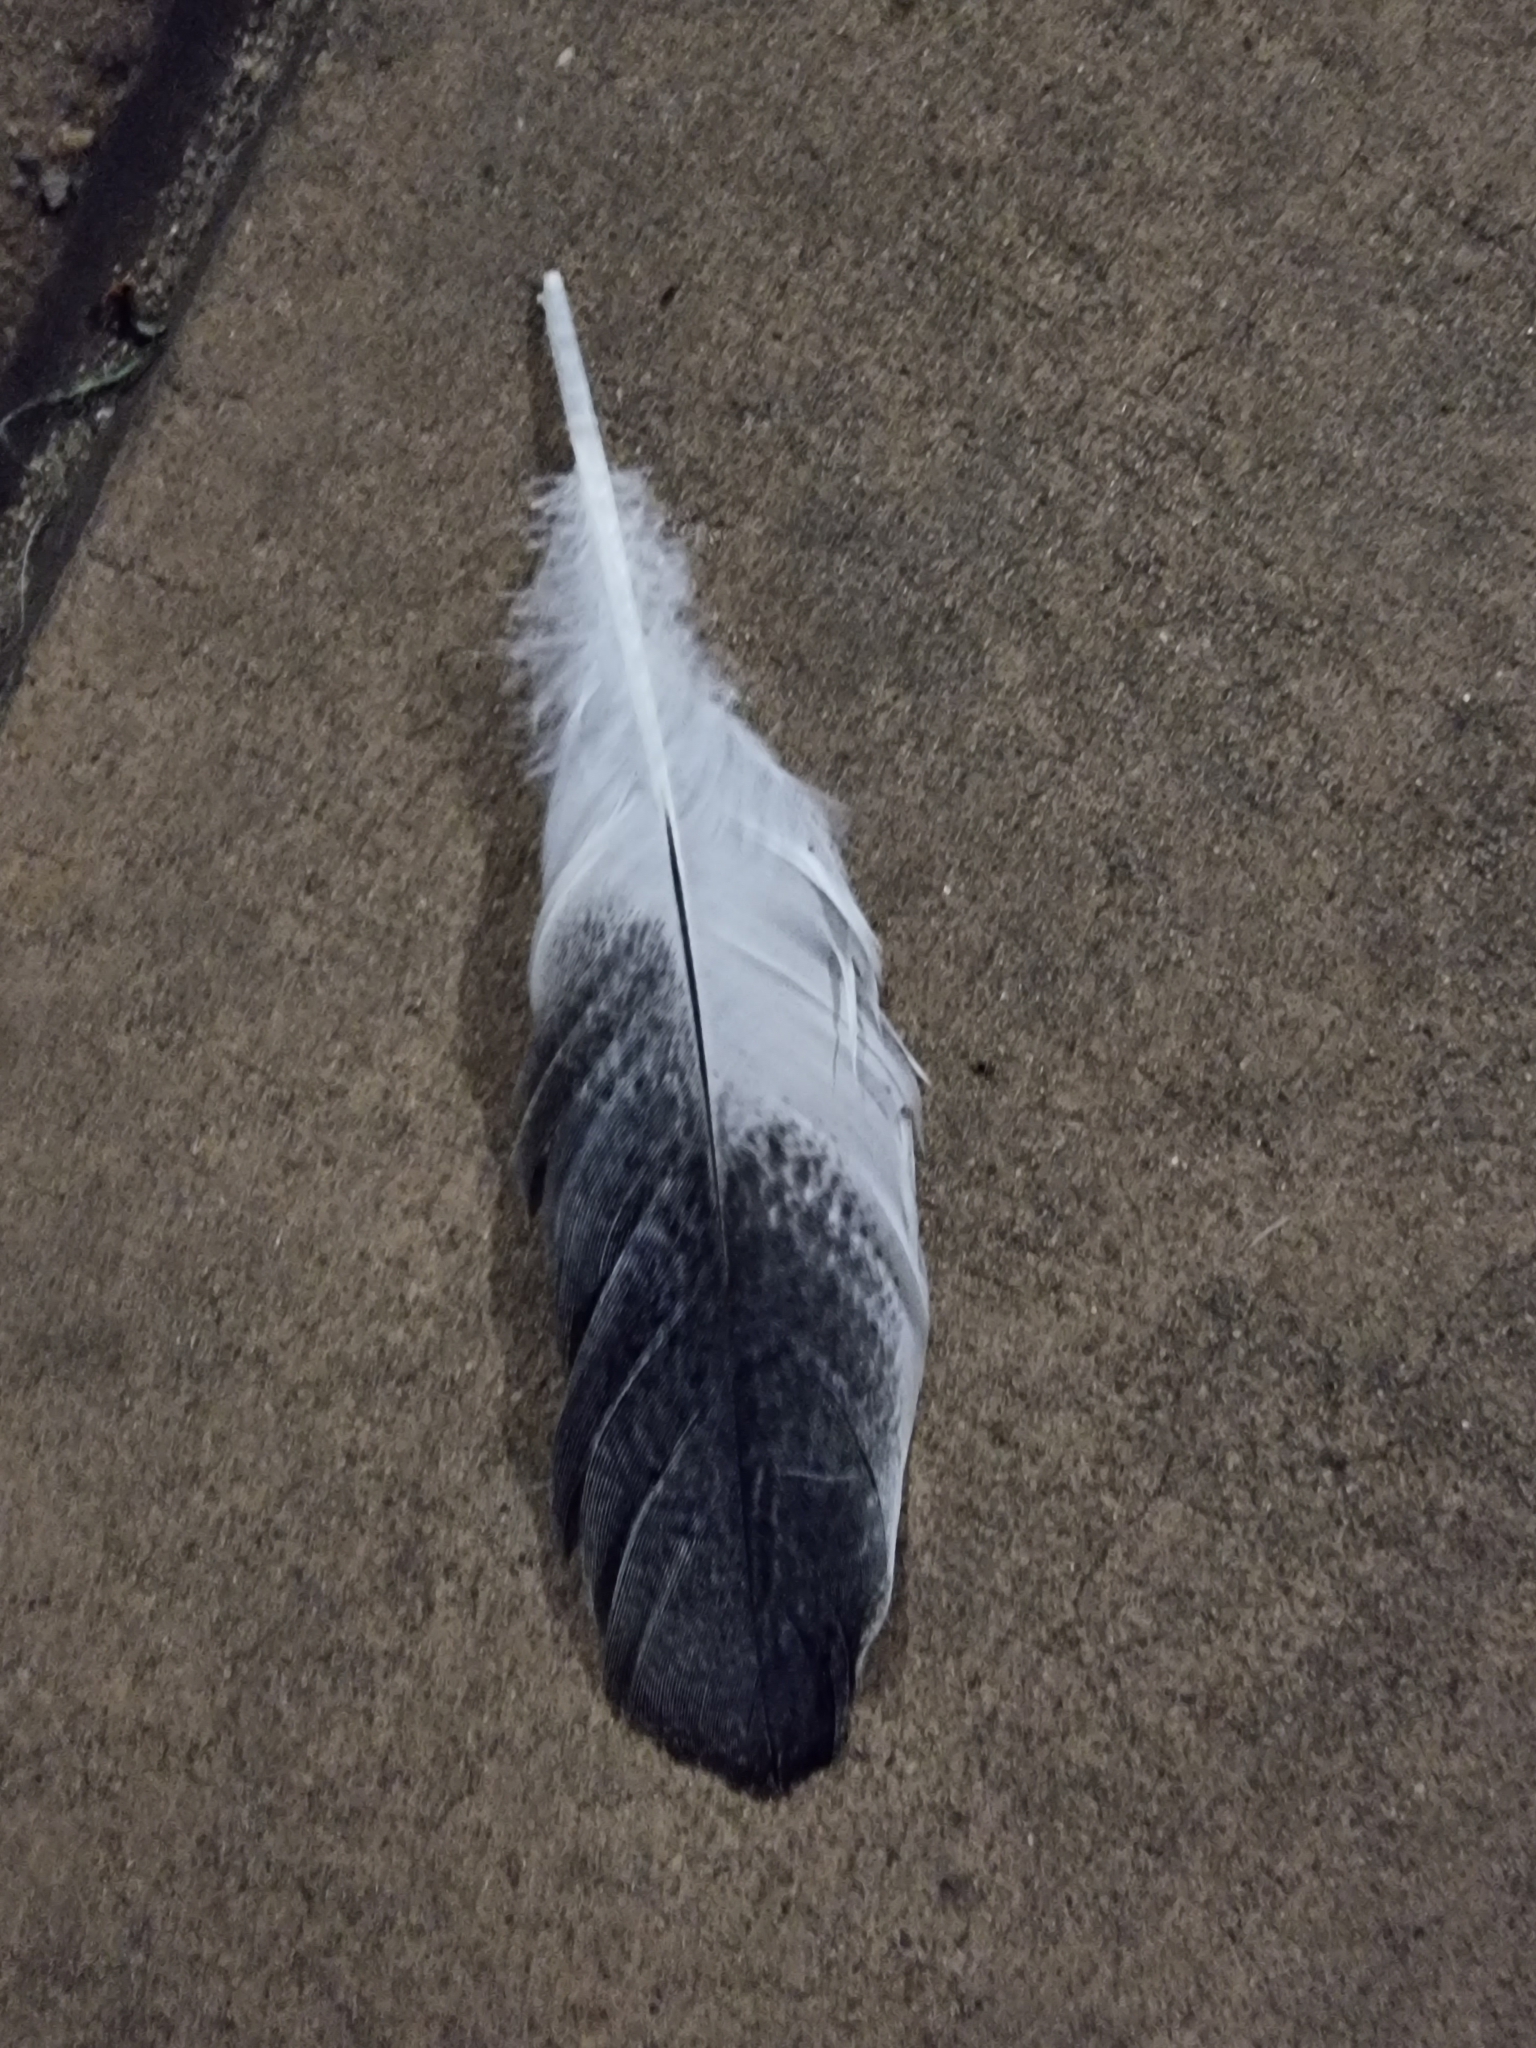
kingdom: Animalia
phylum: Chordata
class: Aves
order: Pelecaniformes
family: Threskiornithidae
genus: Threskiornis
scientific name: Threskiornis molucca
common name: Australian white ibis
